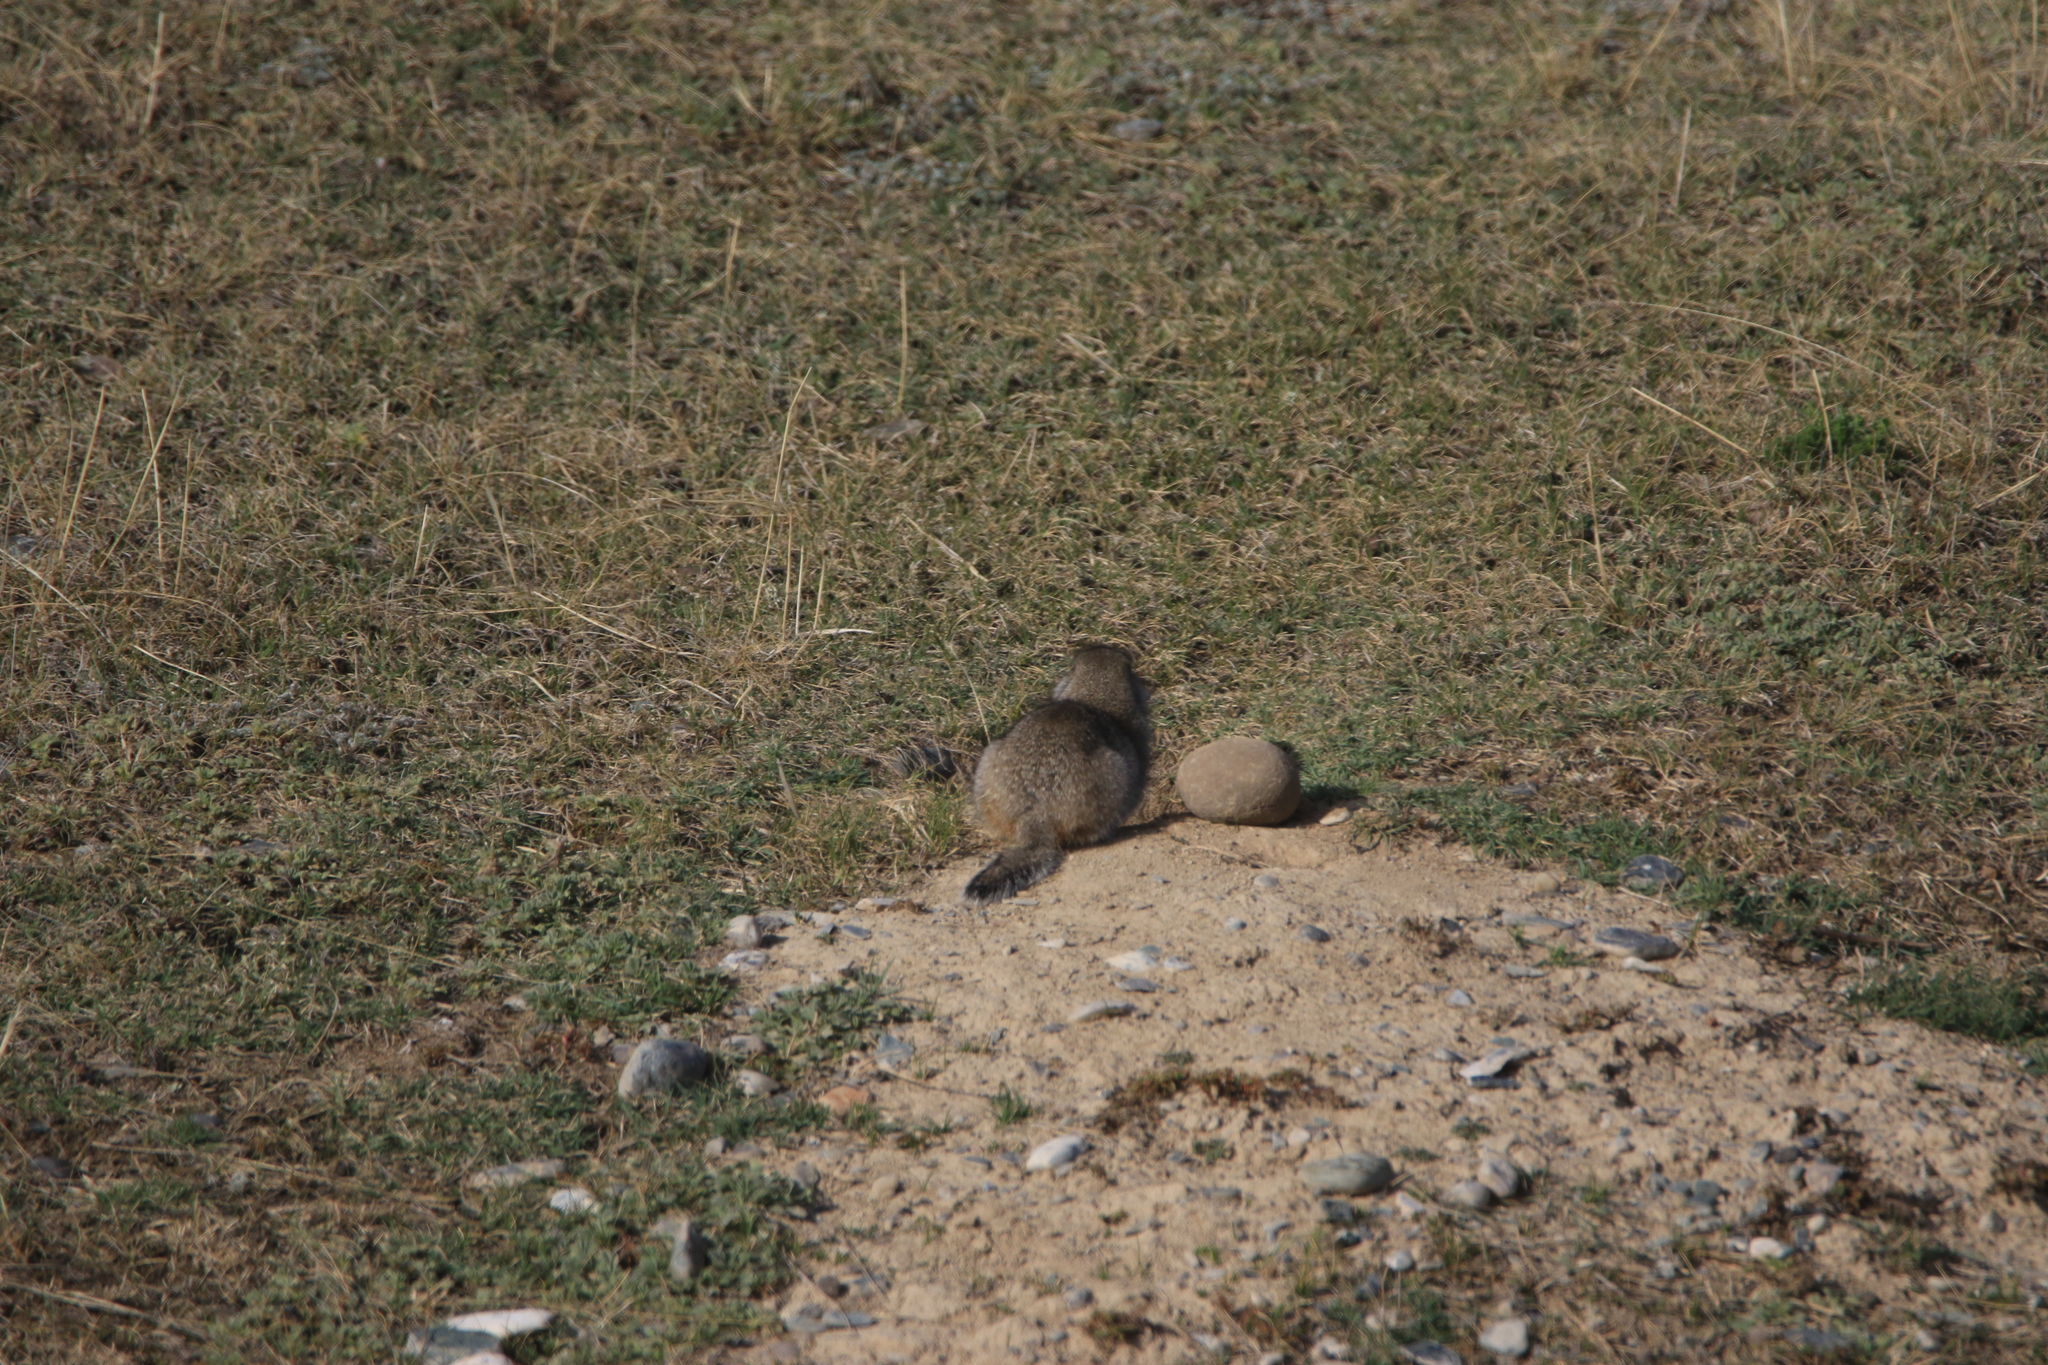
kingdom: Animalia
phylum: Chordata
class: Mammalia
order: Rodentia
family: Sciuridae
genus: Urocitellus
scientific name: Urocitellus undulatus
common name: Long-tailed ground squirrel
